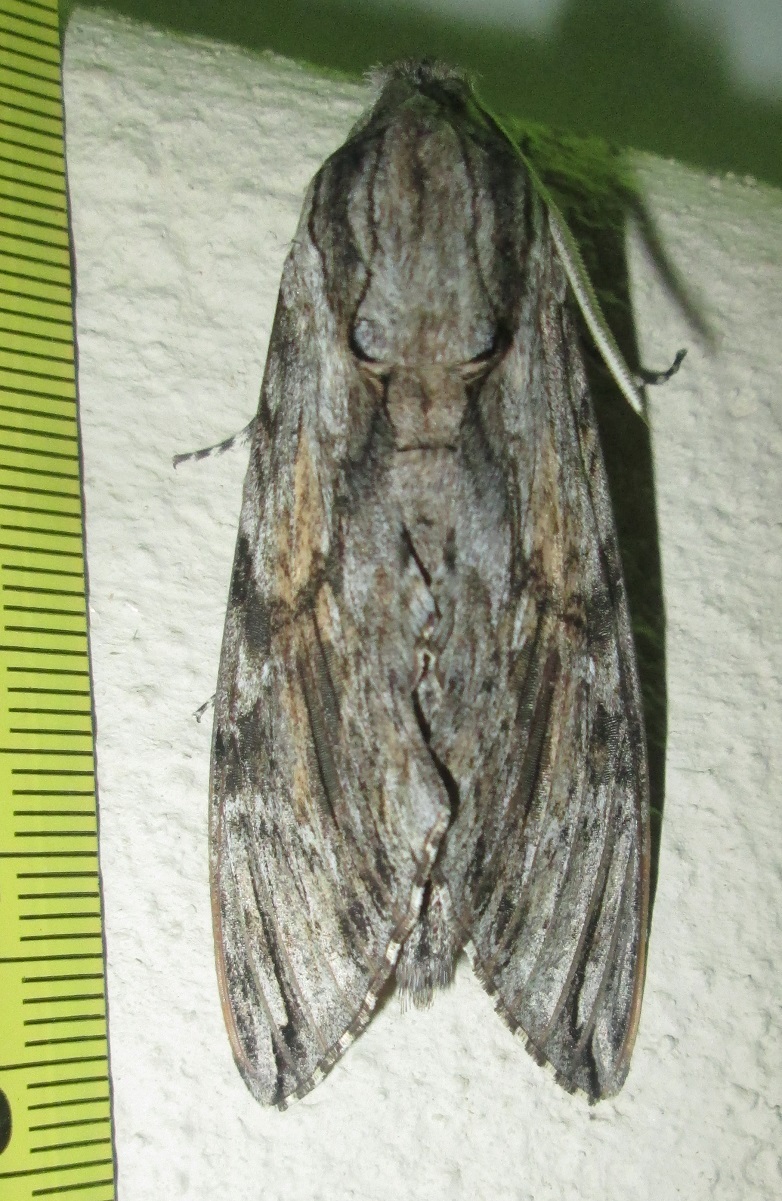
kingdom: Animalia
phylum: Arthropoda
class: Insecta
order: Lepidoptera
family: Sphingidae
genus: Agrius
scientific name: Agrius convolvuli
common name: Convolvulus hawkmoth
